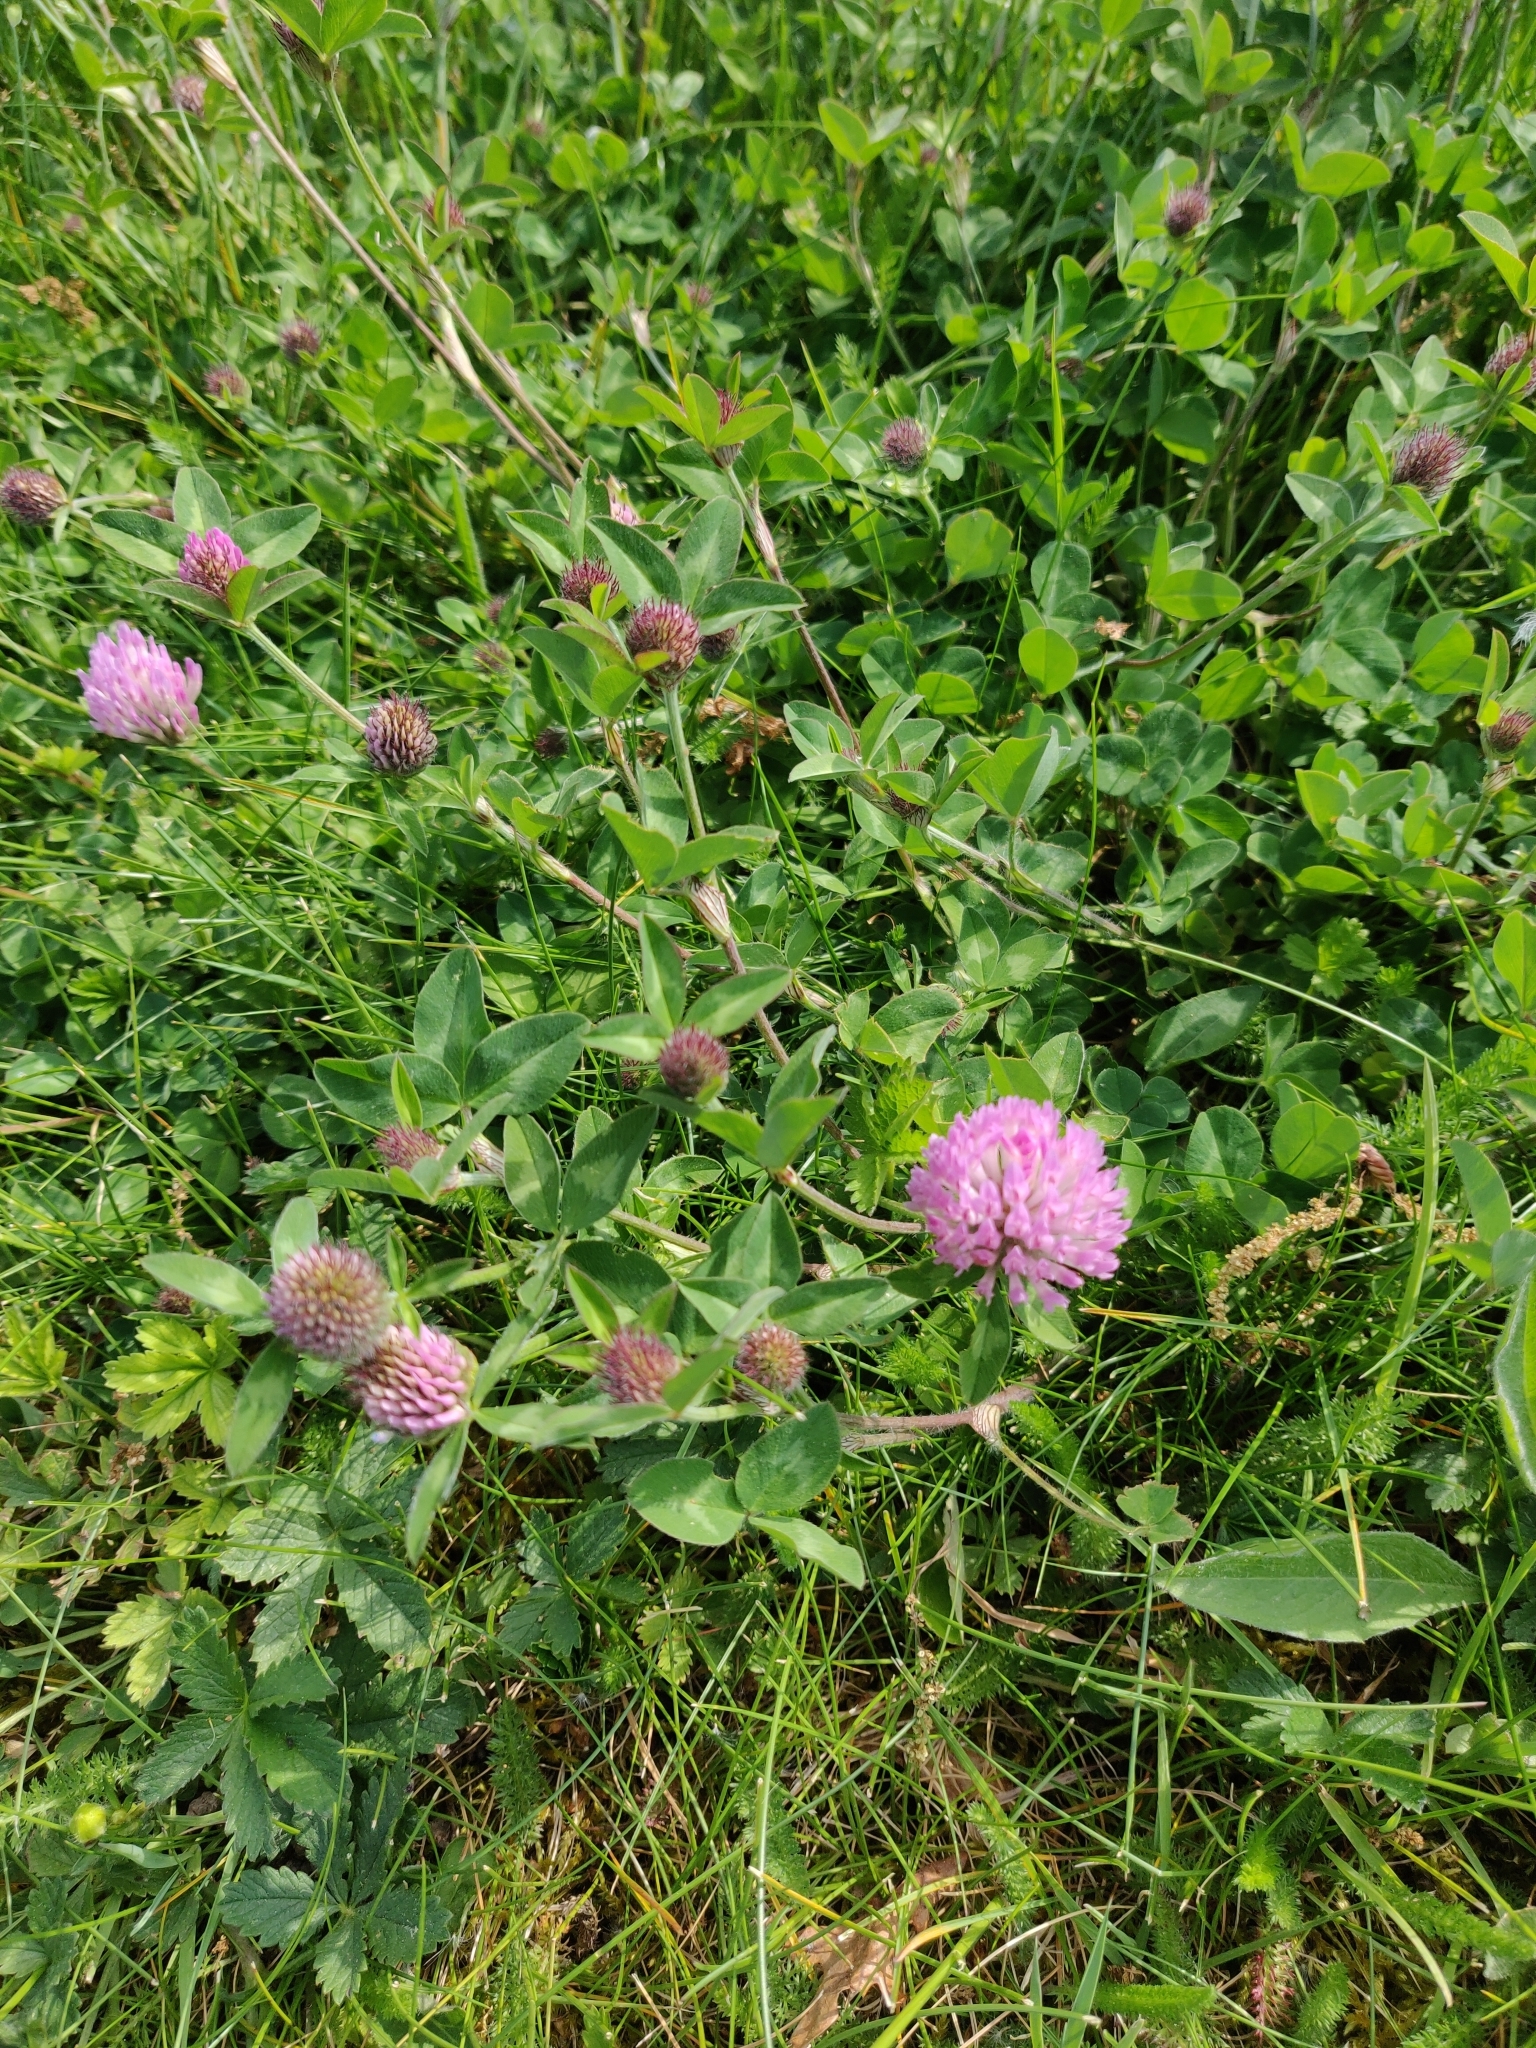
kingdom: Plantae
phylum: Tracheophyta
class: Magnoliopsida
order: Fabales
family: Fabaceae
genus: Trifolium
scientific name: Trifolium pratense
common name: Red clover
